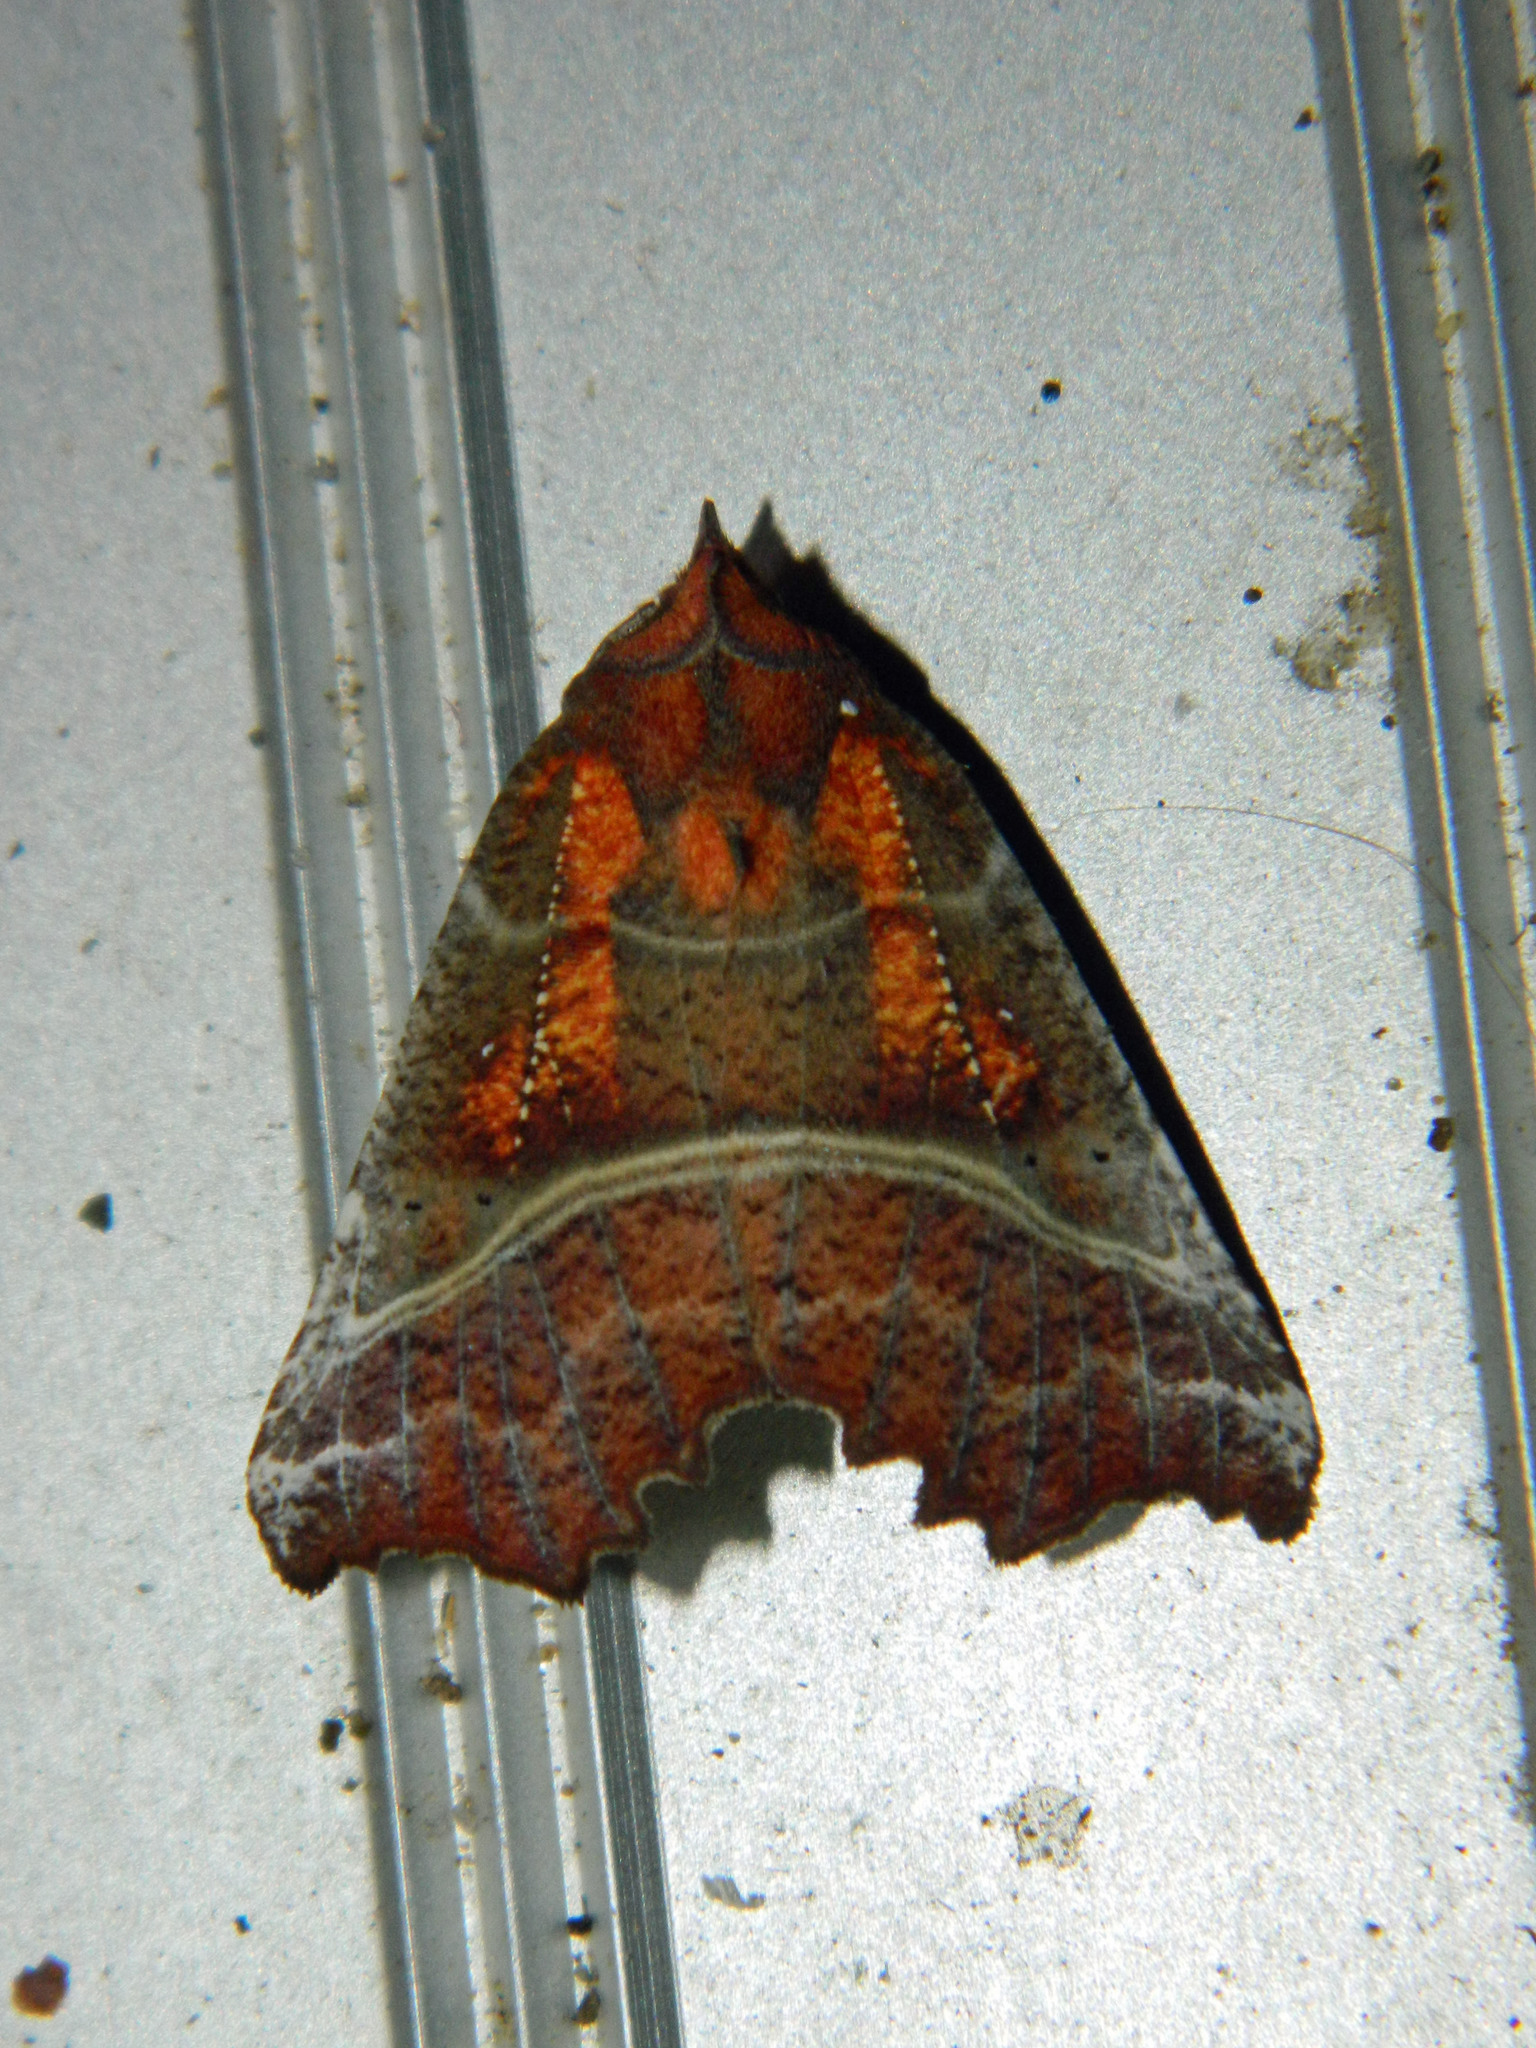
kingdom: Animalia
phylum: Arthropoda
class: Insecta
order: Lepidoptera
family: Erebidae
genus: Scoliopteryx
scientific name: Scoliopteryx libatrix
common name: Herald
